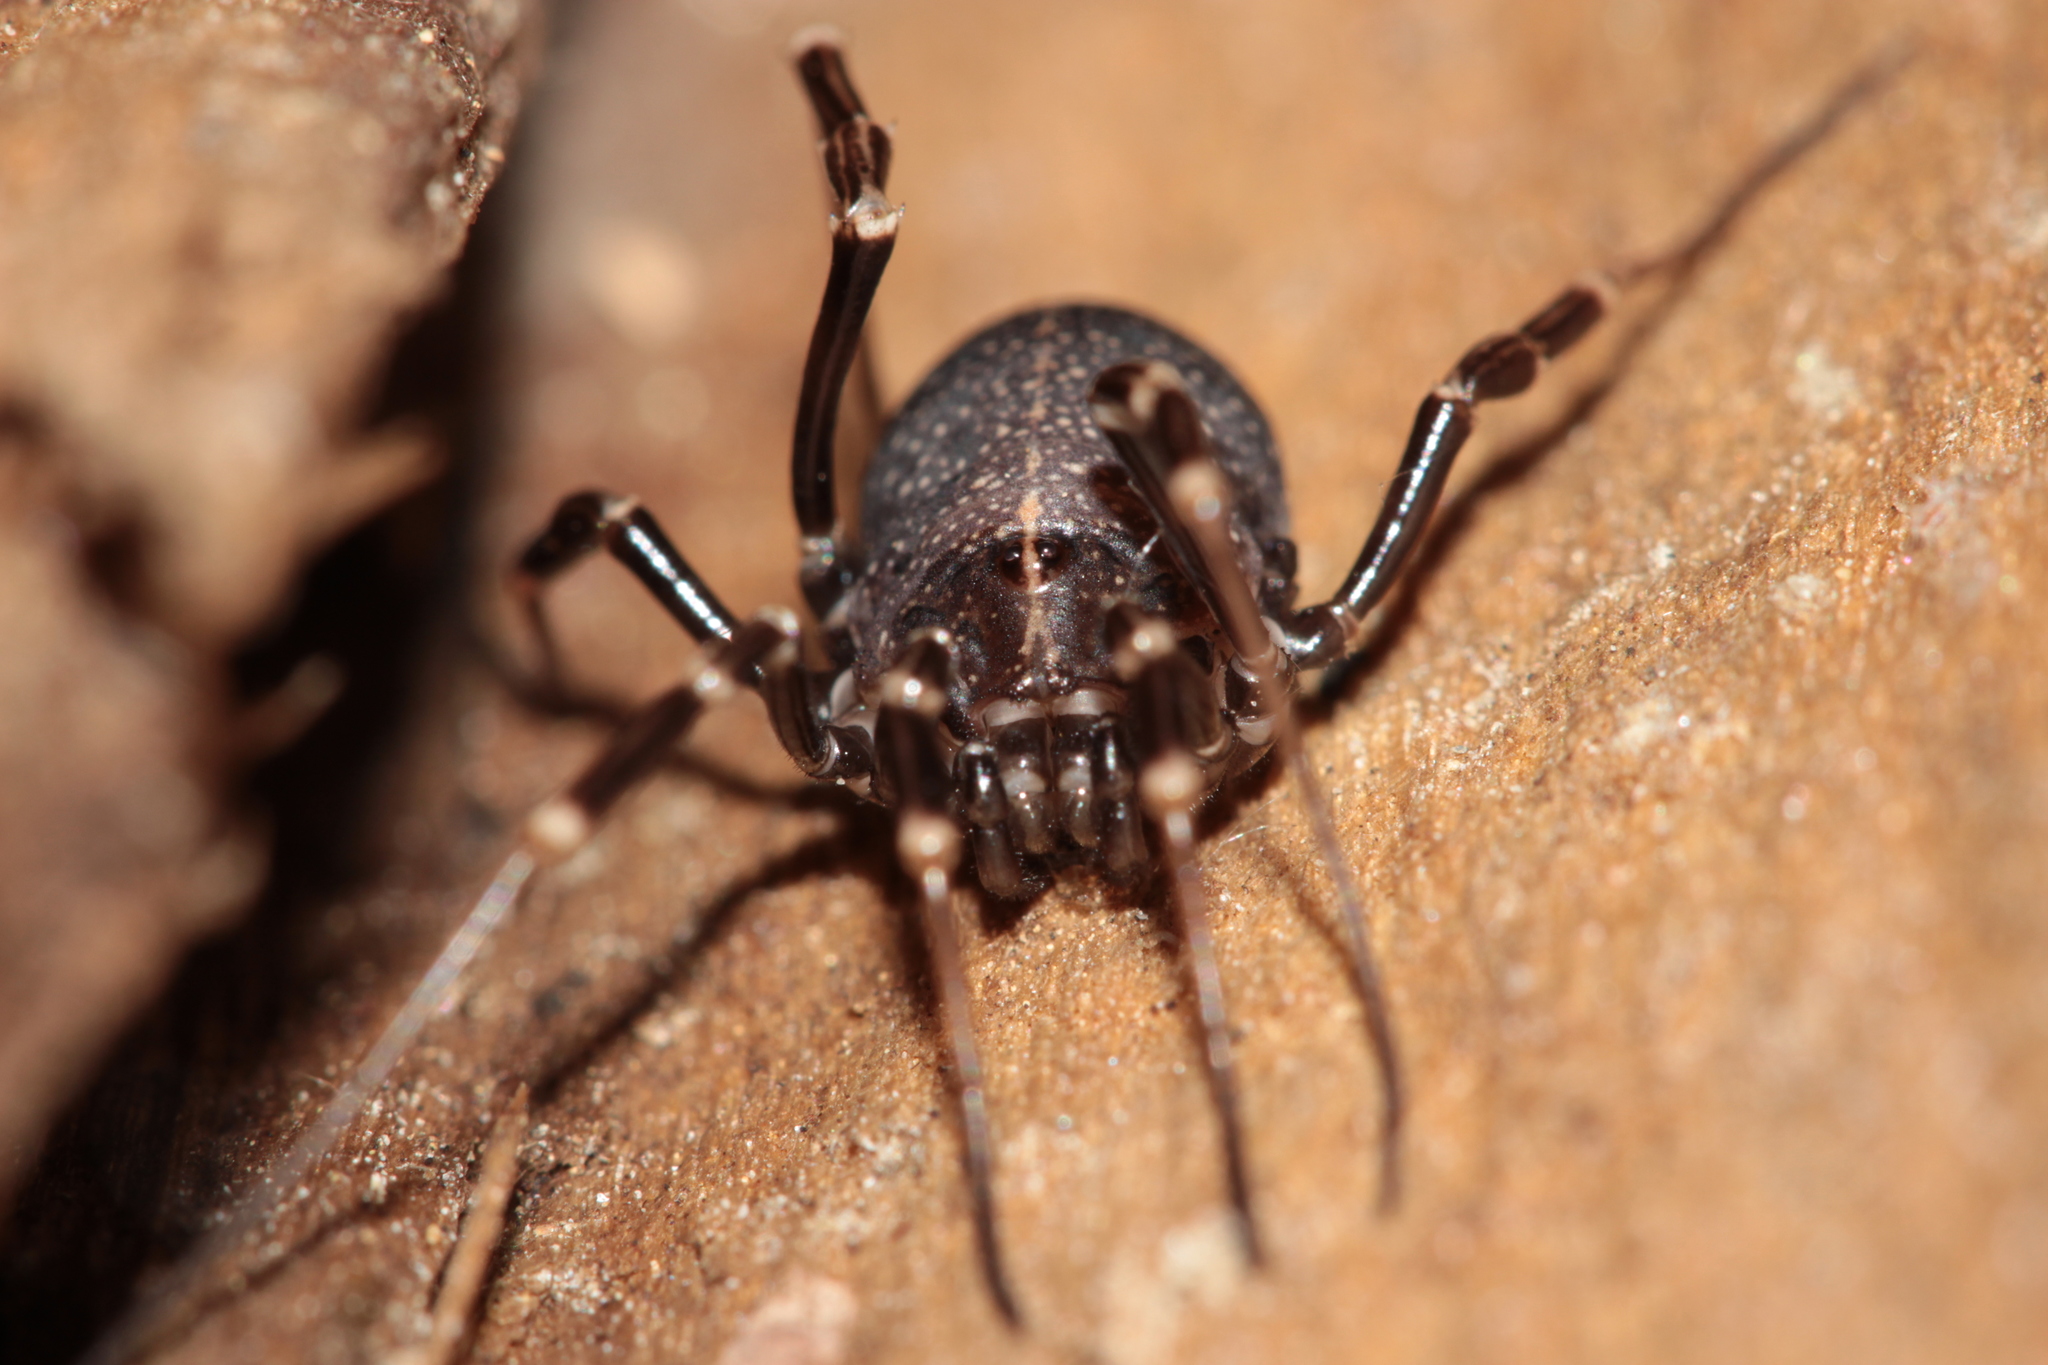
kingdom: Animalia
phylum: Arthropoda
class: Arachnida
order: Opiliones
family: Phalangiidae
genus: Egaenus
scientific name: Egaenus convexus
